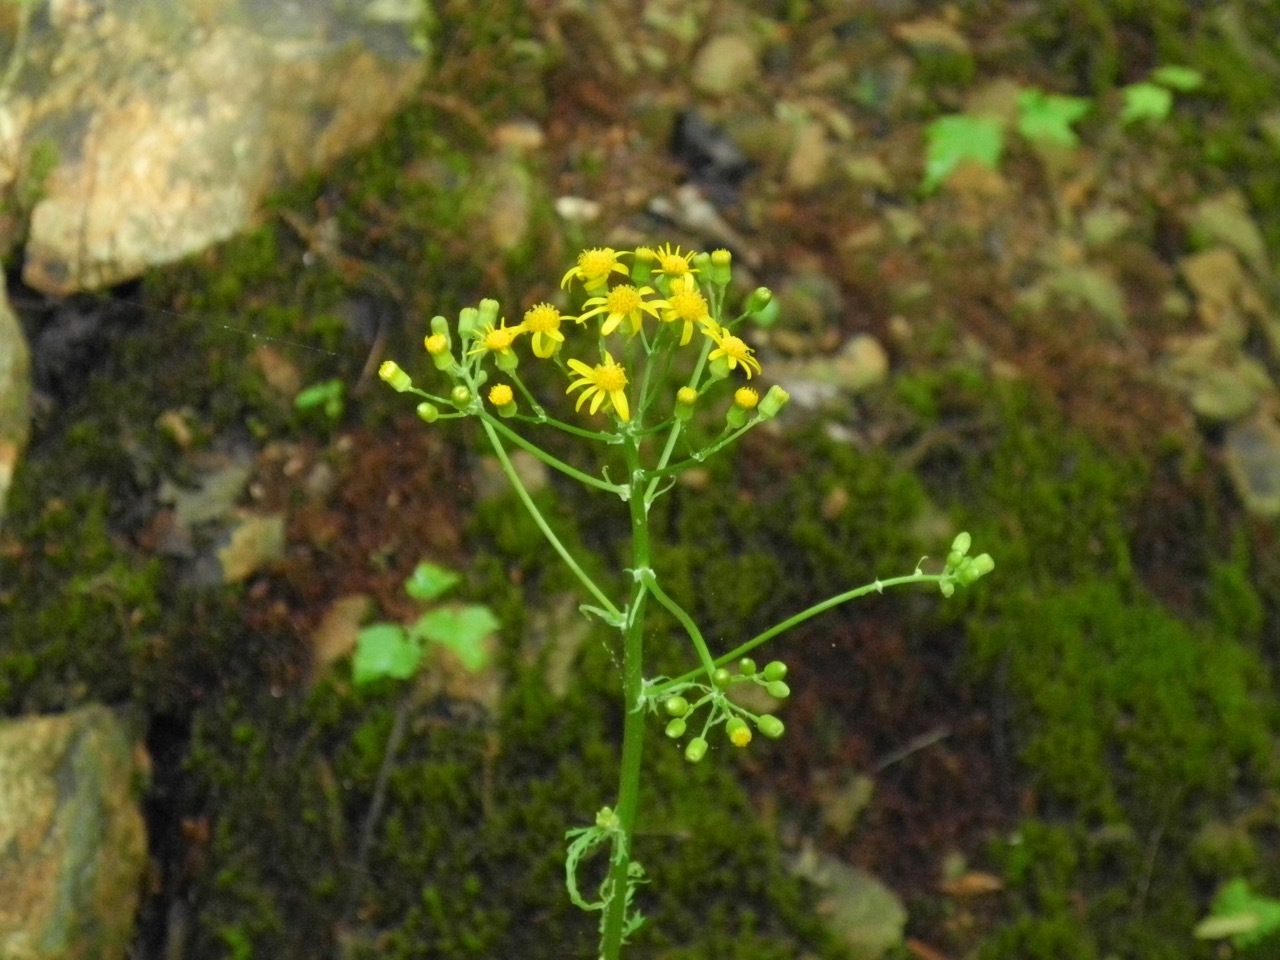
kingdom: Plantae
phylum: Tracheophyta
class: Magnoliopsida
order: Asterales
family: Asteraceae
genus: Packera
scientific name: Packera anonyma
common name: Small ragwort
